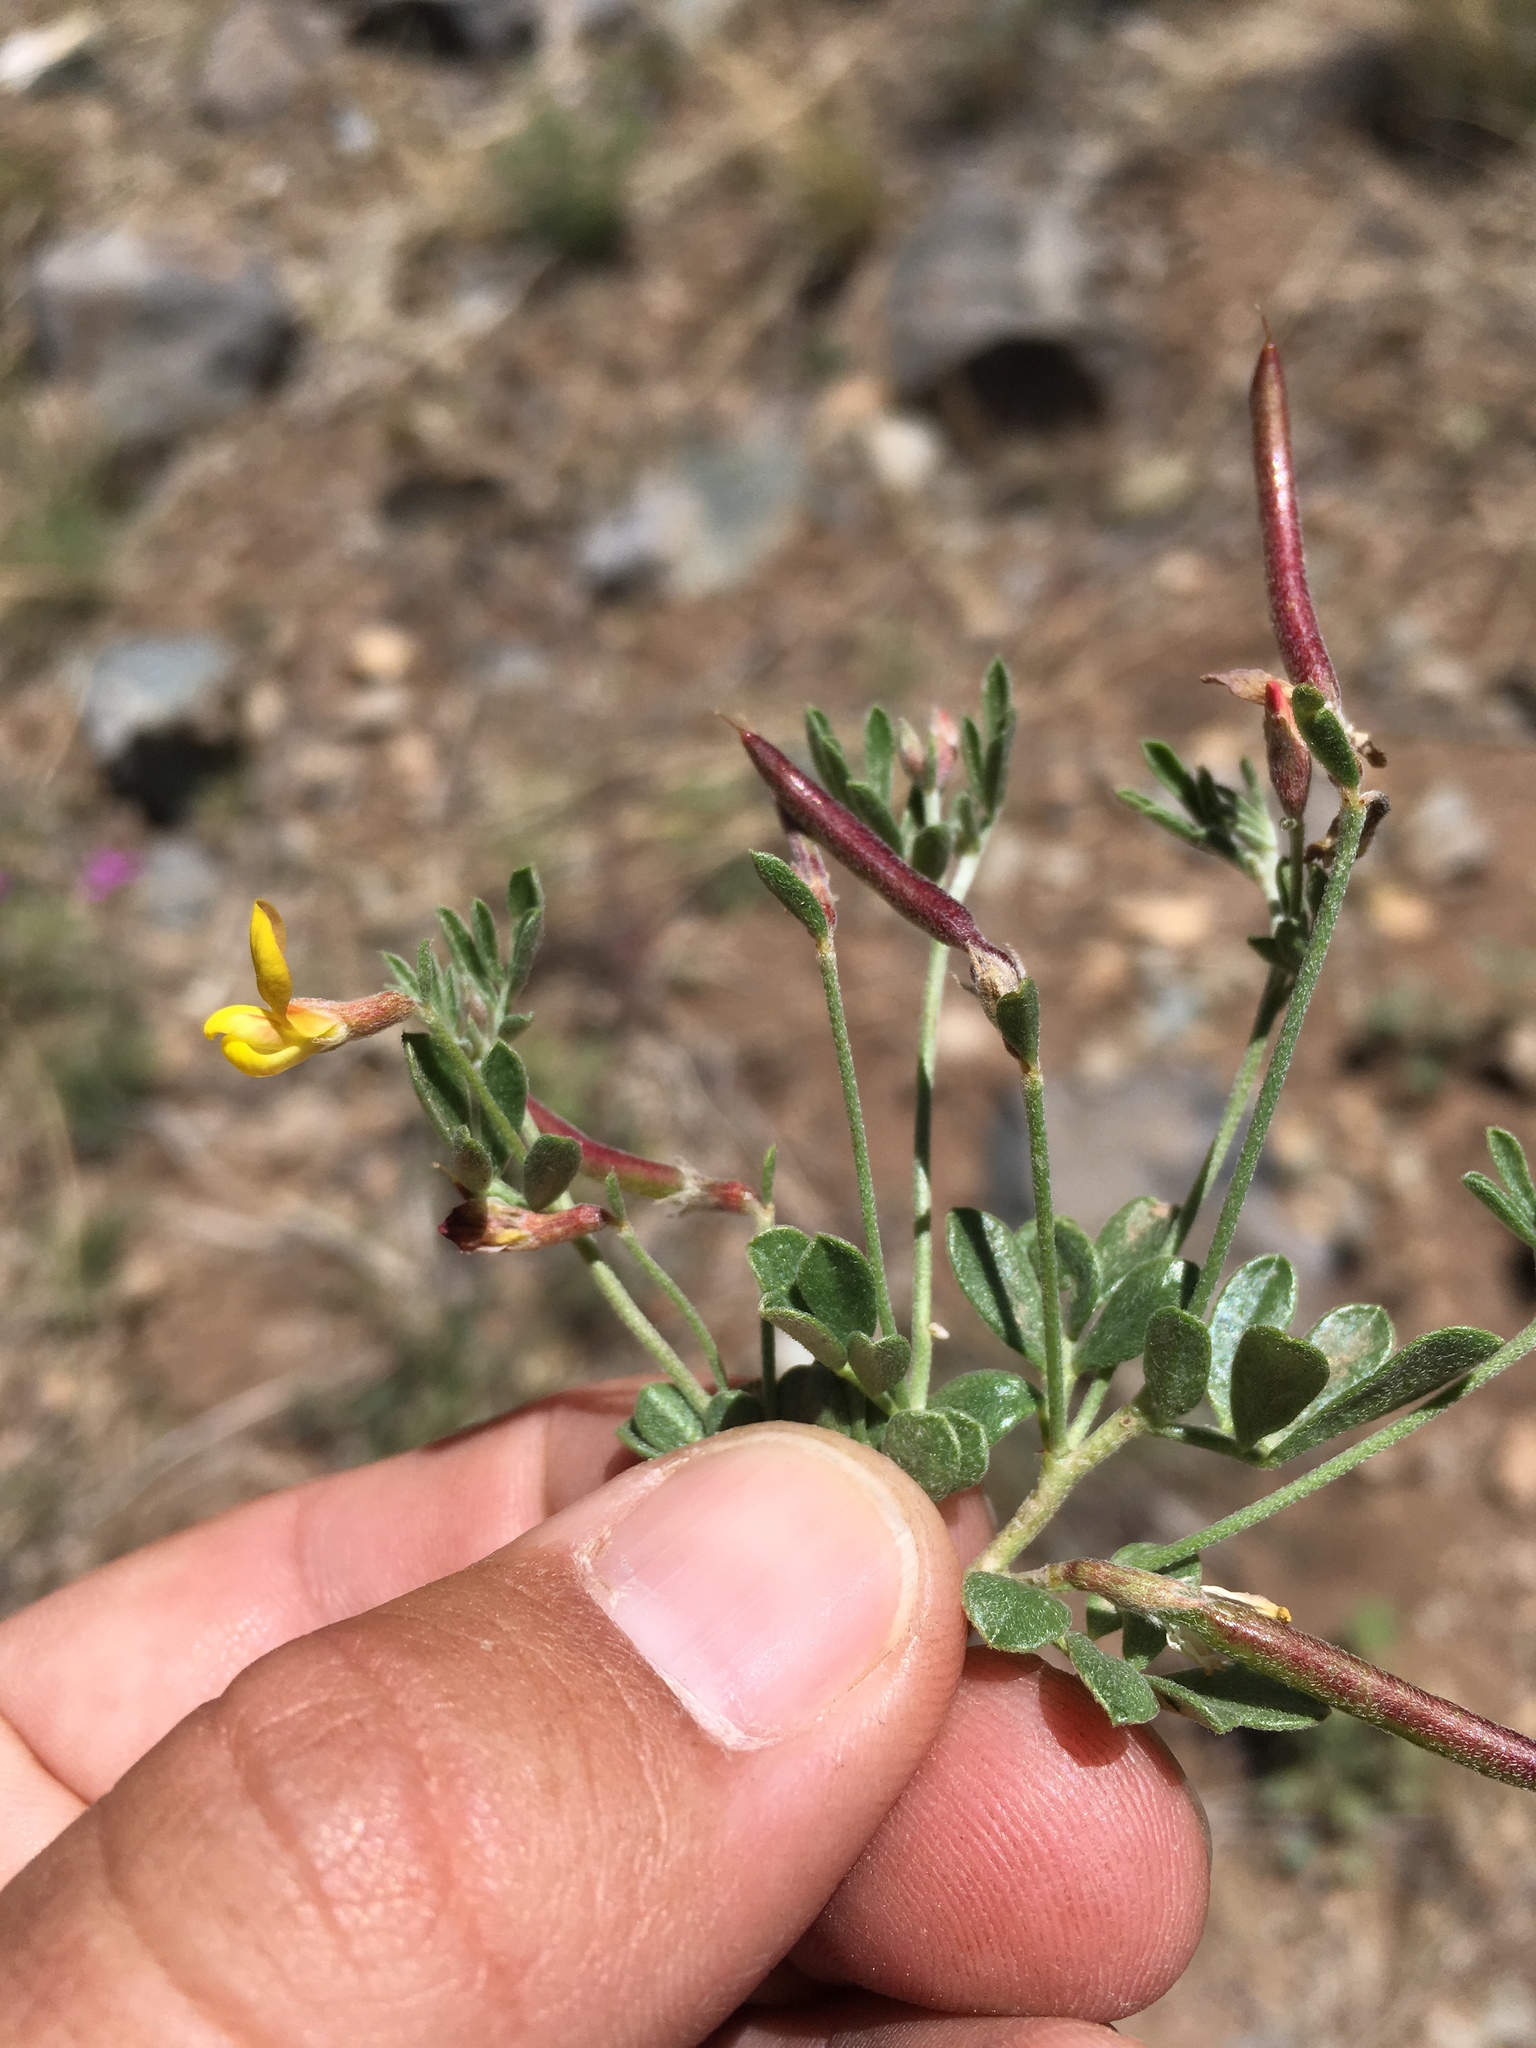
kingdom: Plantae
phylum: Tracheophyta
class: Magnoliopsida
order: Fabales
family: Fabaceae
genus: Acmispon
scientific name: Acmispon oroboides
